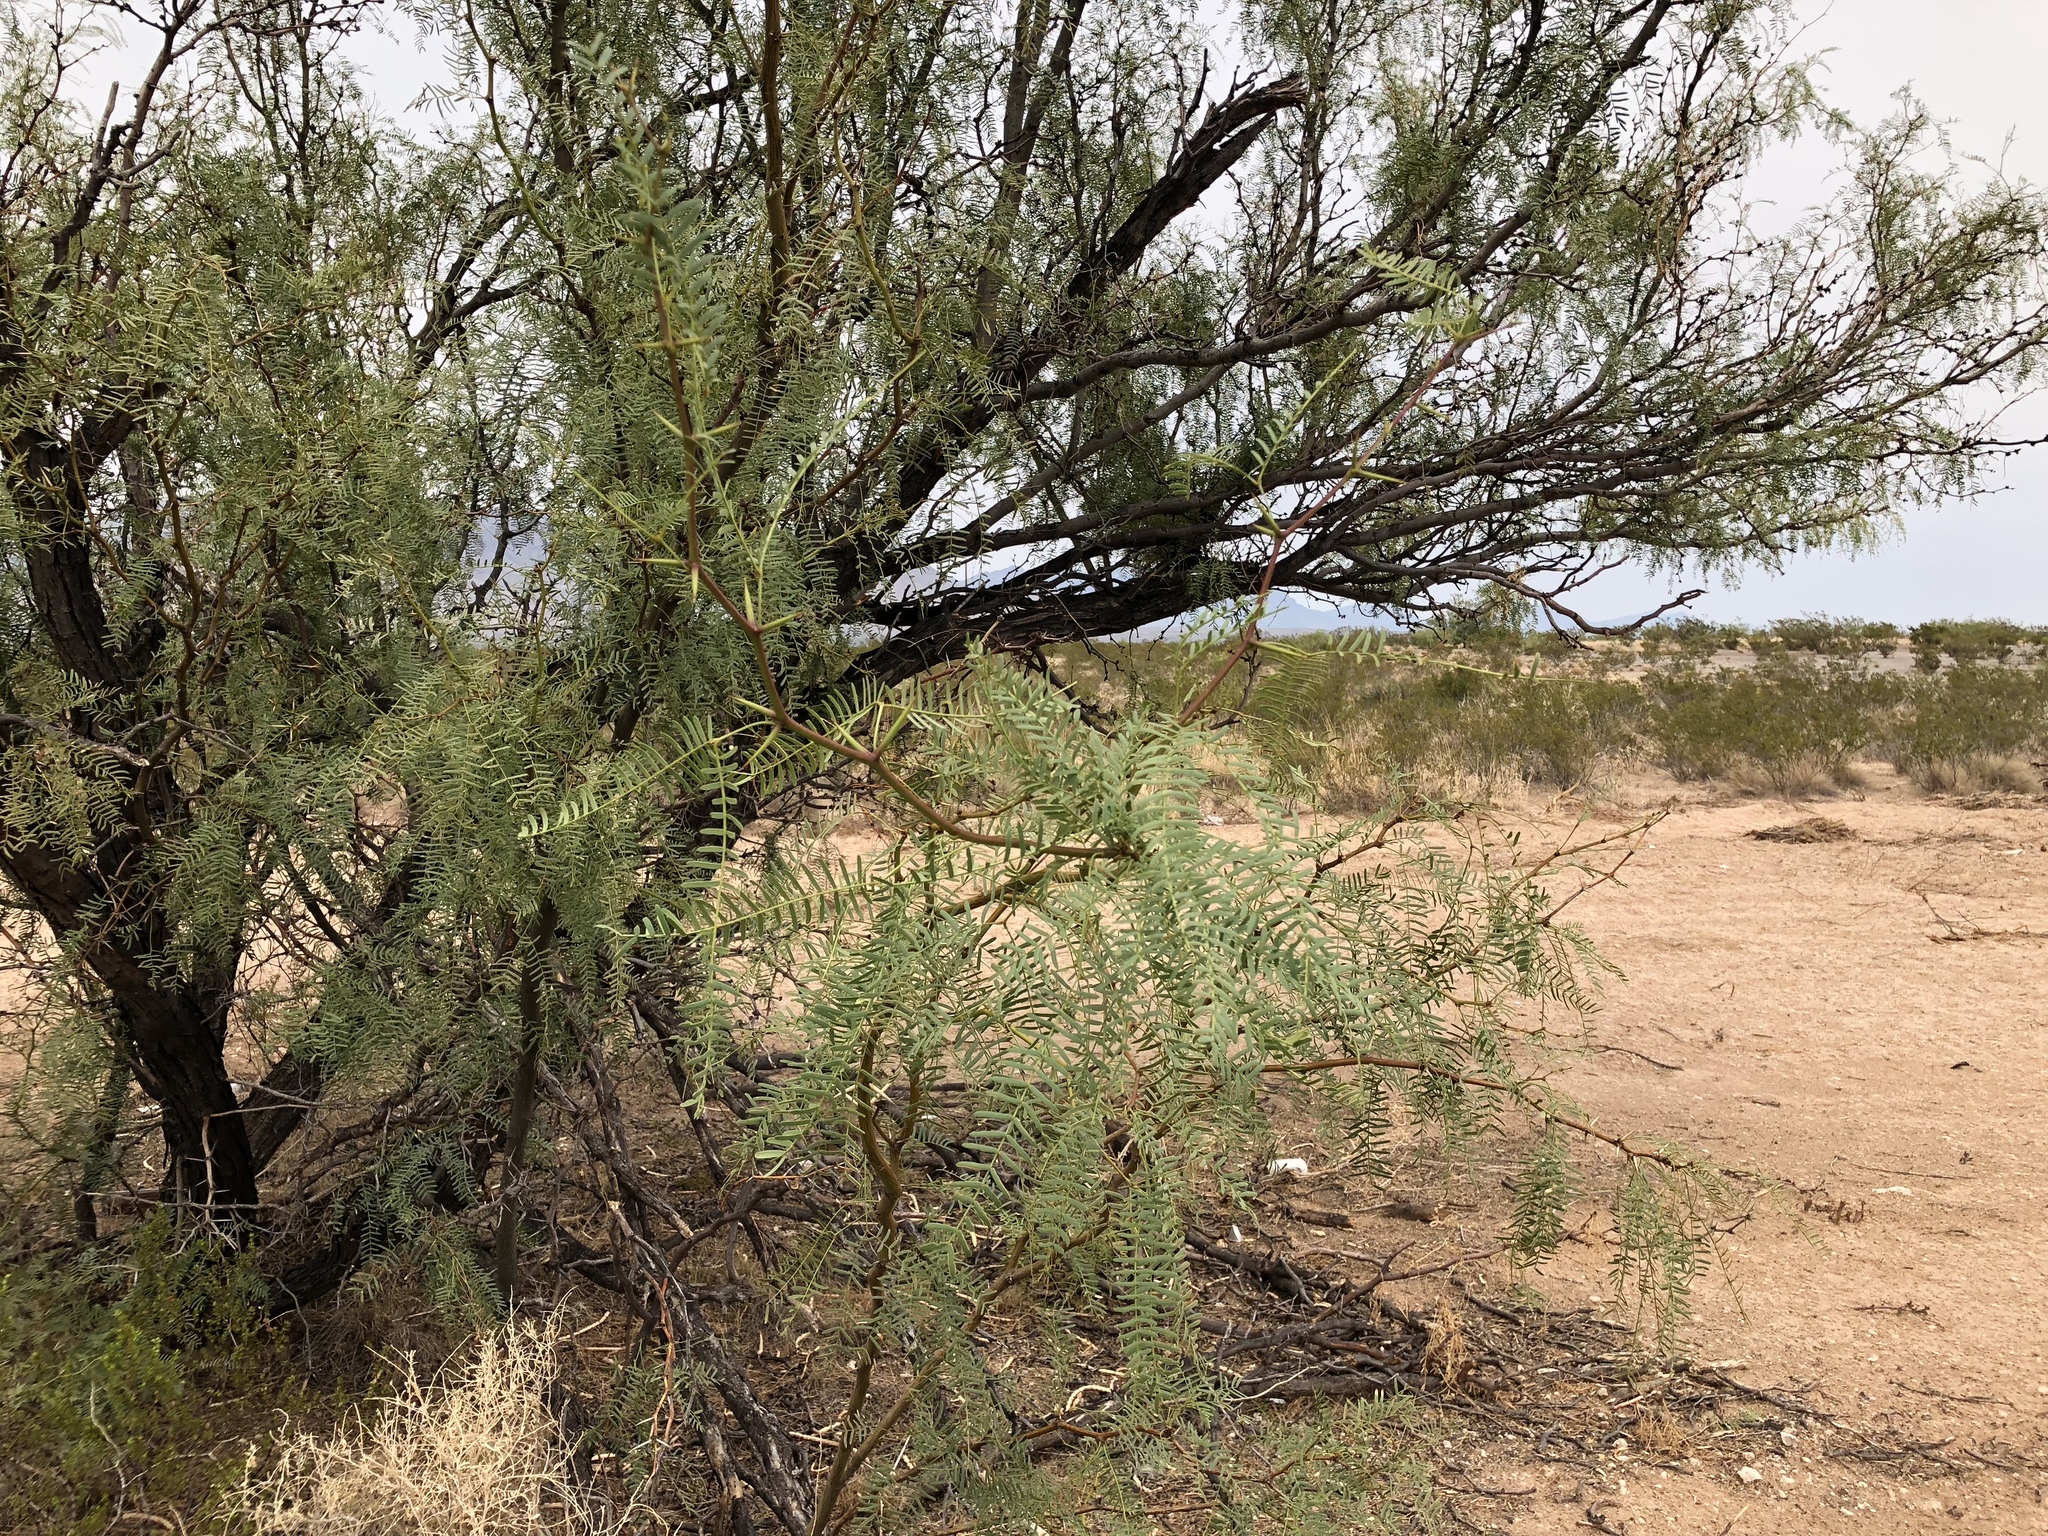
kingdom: Plantae
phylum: Tracheophyta
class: Magnoliopsida
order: Fabales
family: Fabaceae
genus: Prosopis
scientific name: Prosopis glandulosa
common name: Honey mesquite
